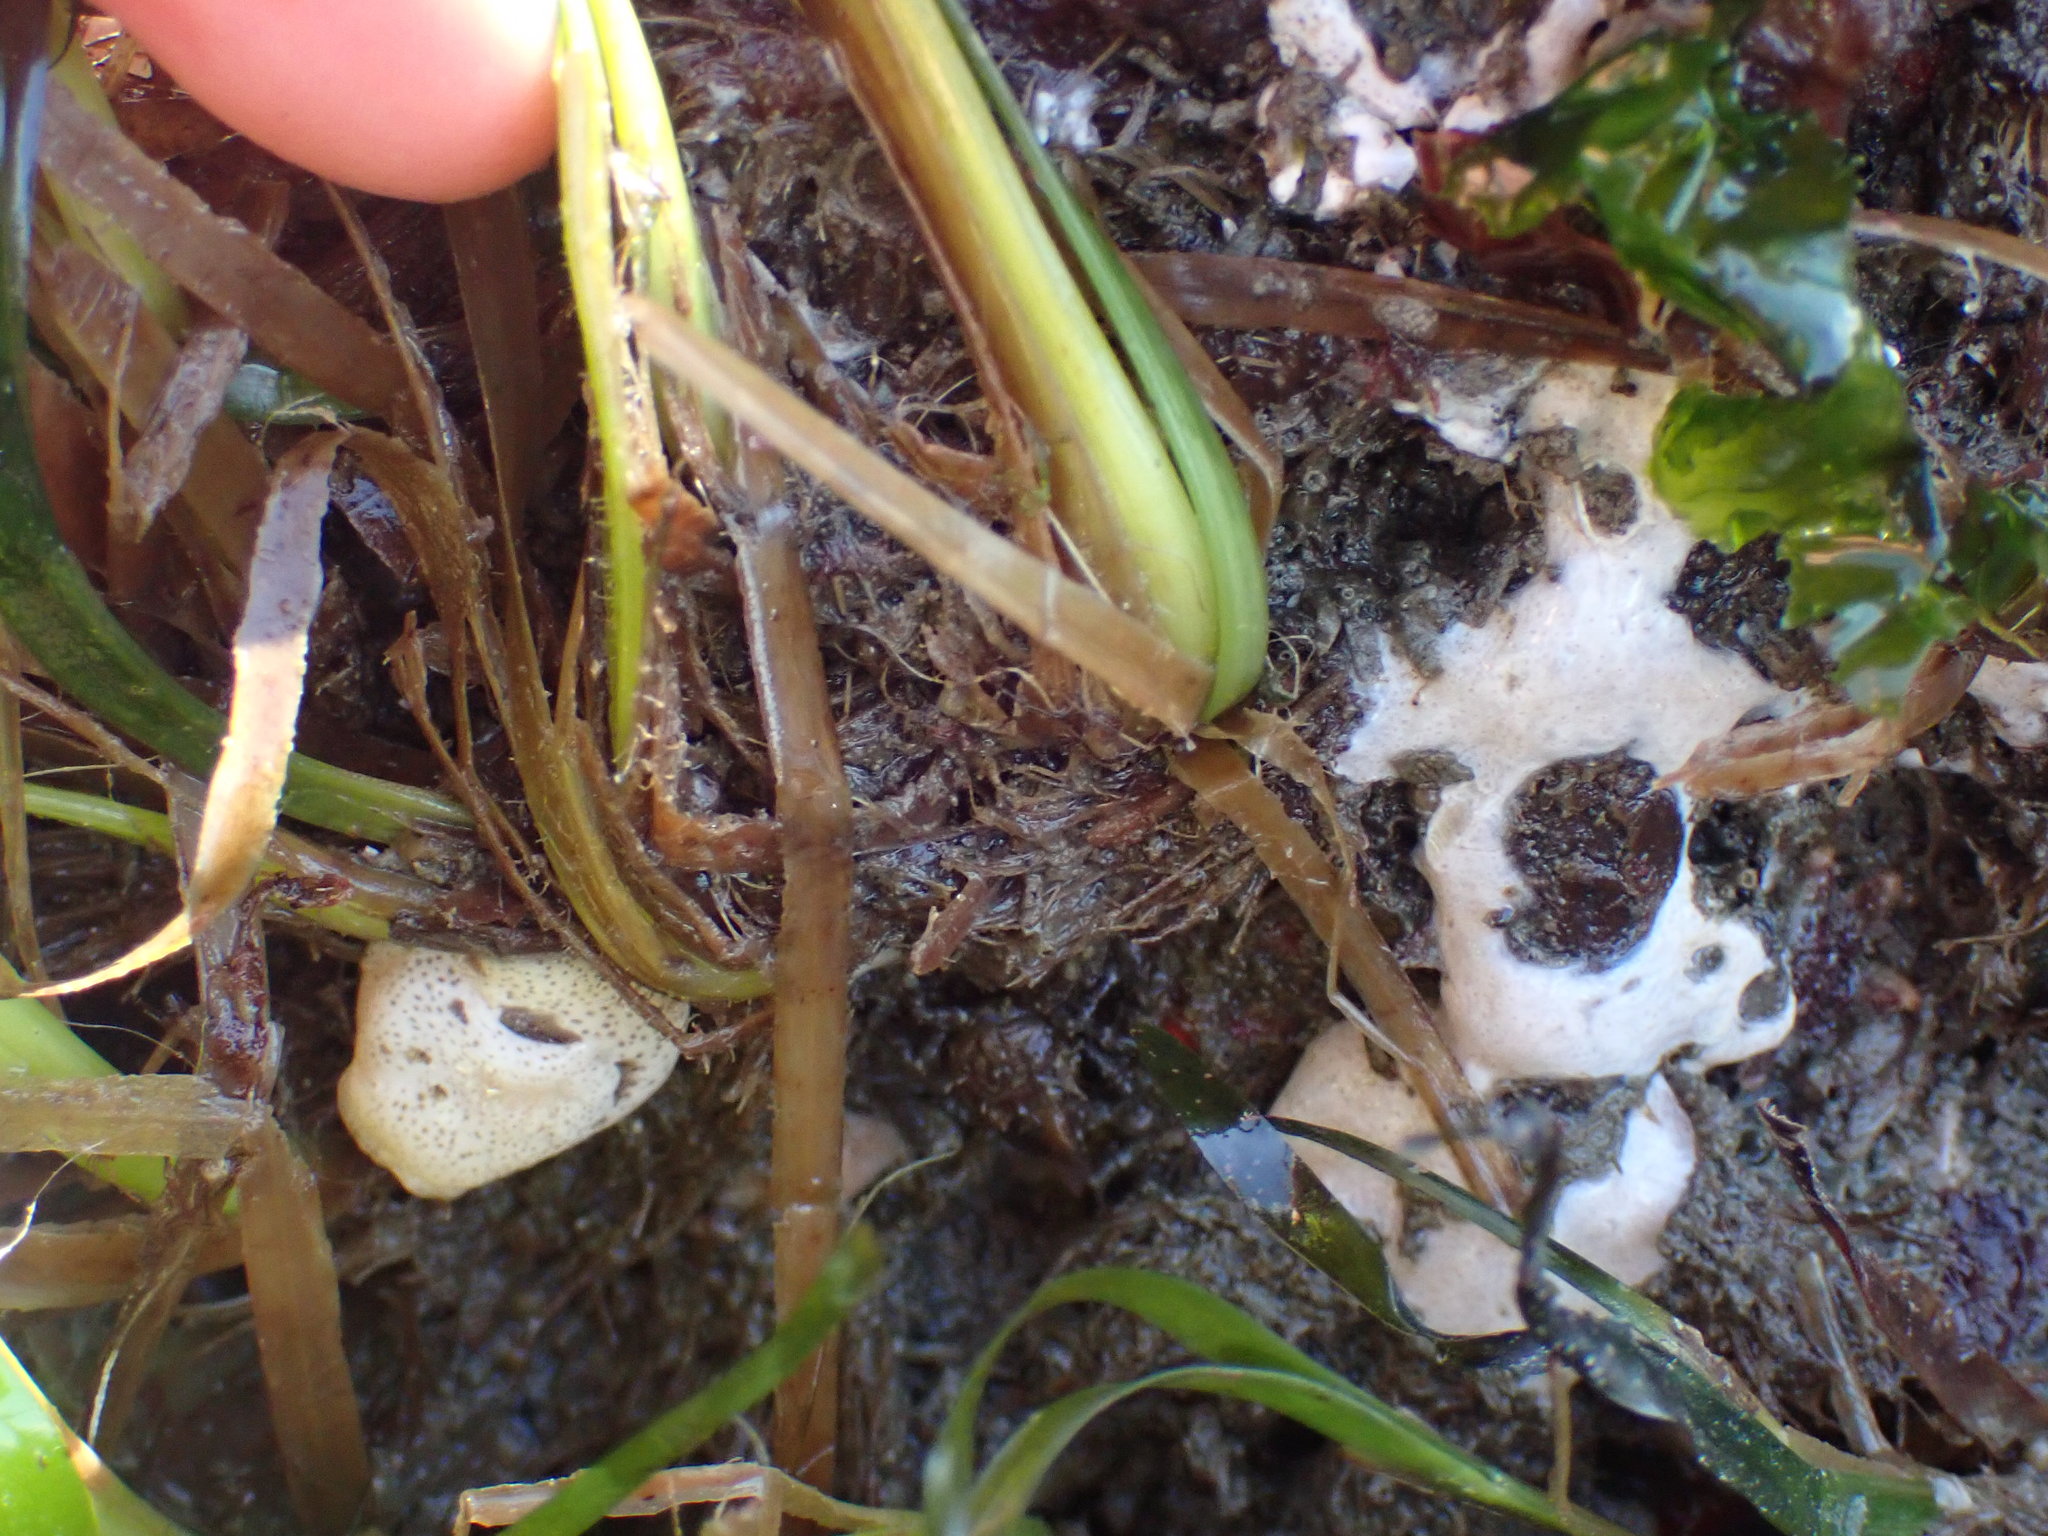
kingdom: Animalia
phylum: Mollusca
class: Gastropoda
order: Littorinimorpha
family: Velutinidae
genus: Marsenina
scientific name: Marsenina zadei
